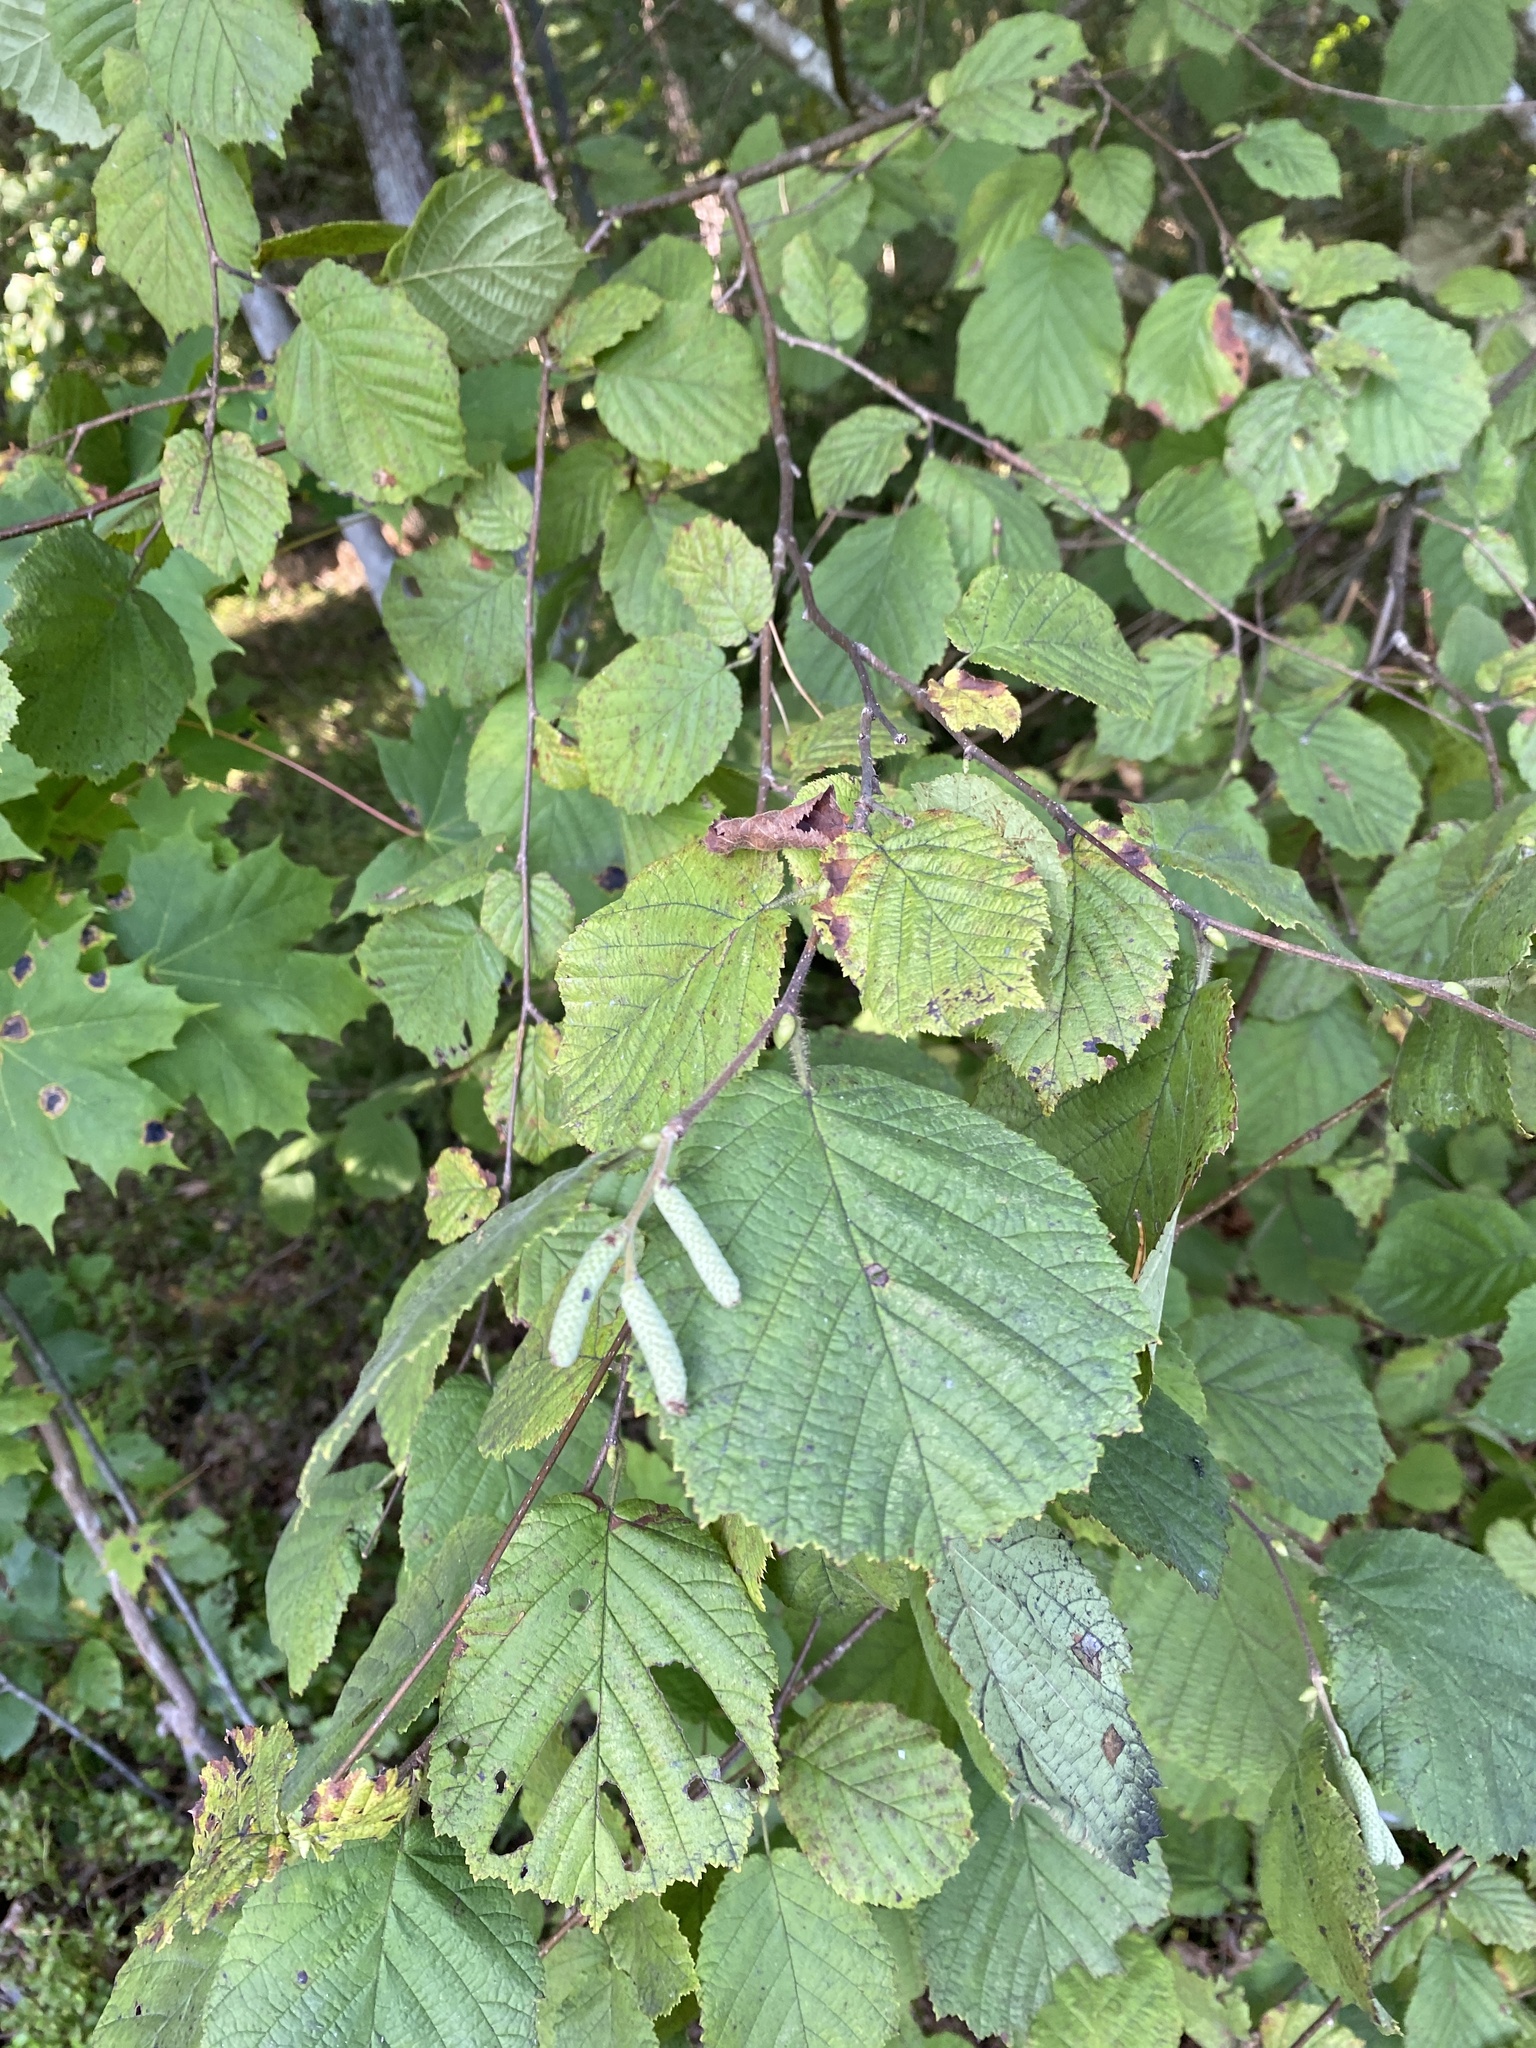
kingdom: Plantae
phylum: Tracheophyta
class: Magnoliopsida
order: Fagales
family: Betulaceae
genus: Corylus
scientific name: Corylus avellana
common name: European hazel
